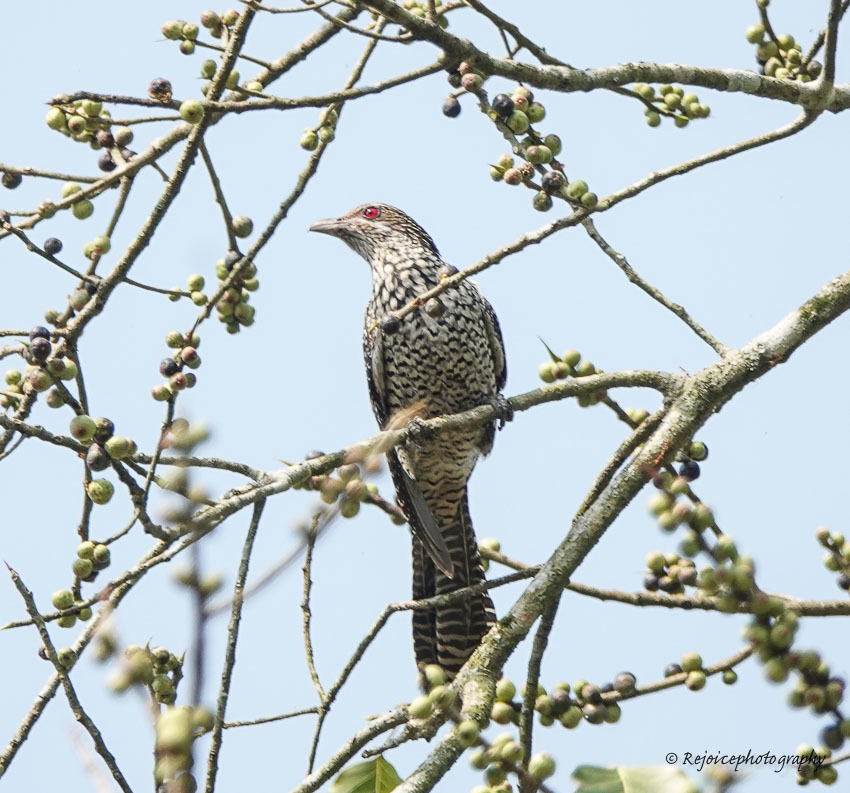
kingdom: Animalia
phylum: Chordata
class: Aves
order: Cuculiformes
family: Cuculidae
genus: Eudynamys
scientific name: Eudynamys scolopaceus
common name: Asian koel
